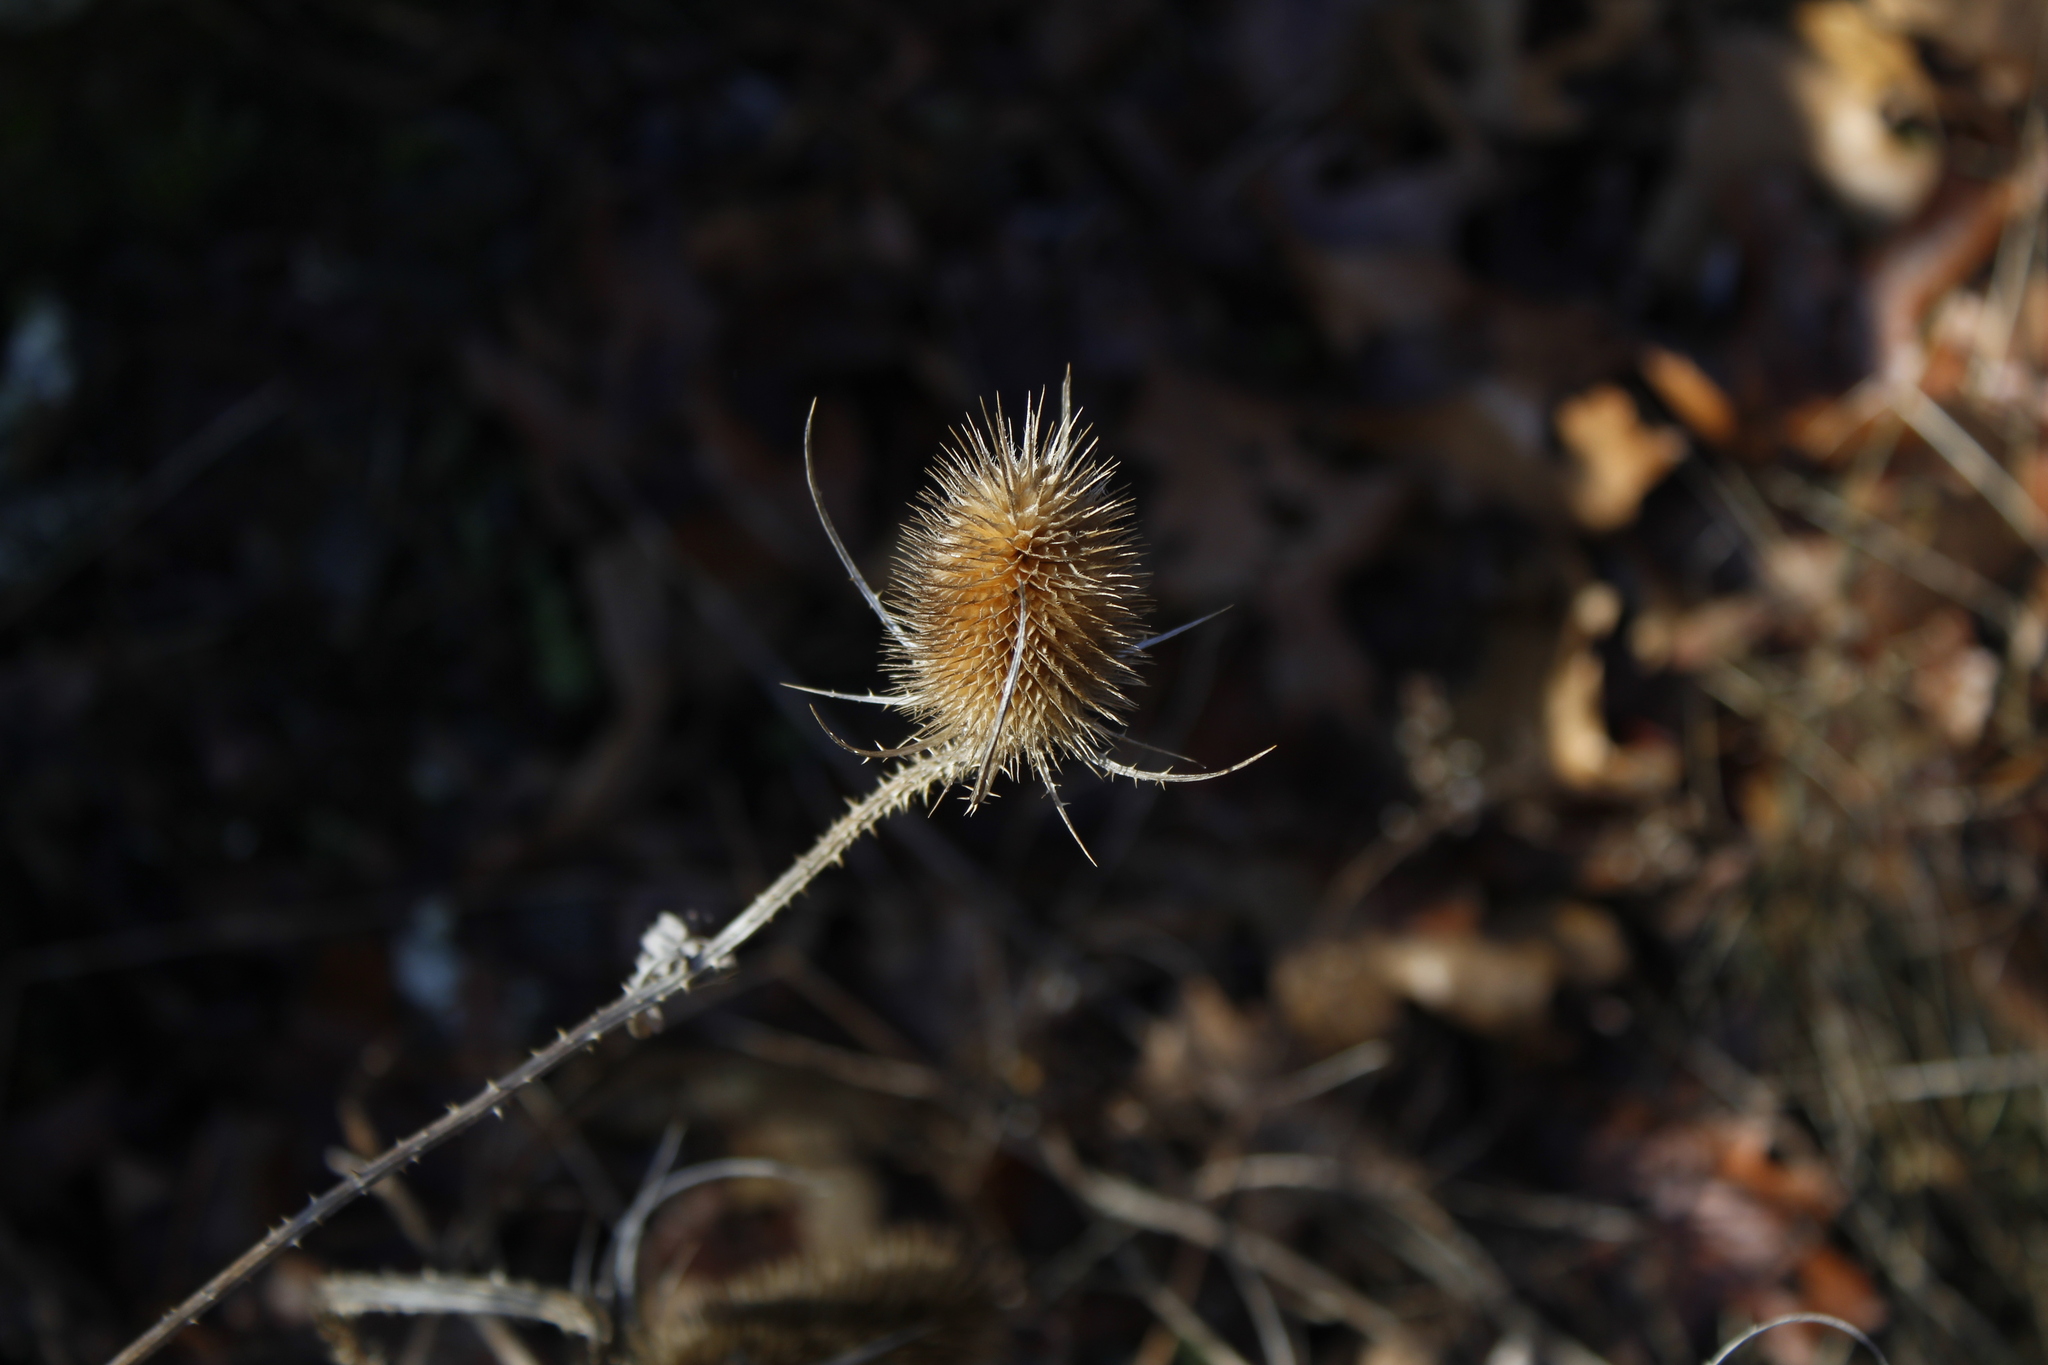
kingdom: Plantae
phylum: Tracheophyta
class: Magnoliopsida
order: Dipsacales
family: Caprifoliaceae
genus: Dipsacus
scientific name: Dipsacus fullonum
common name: Teasel
